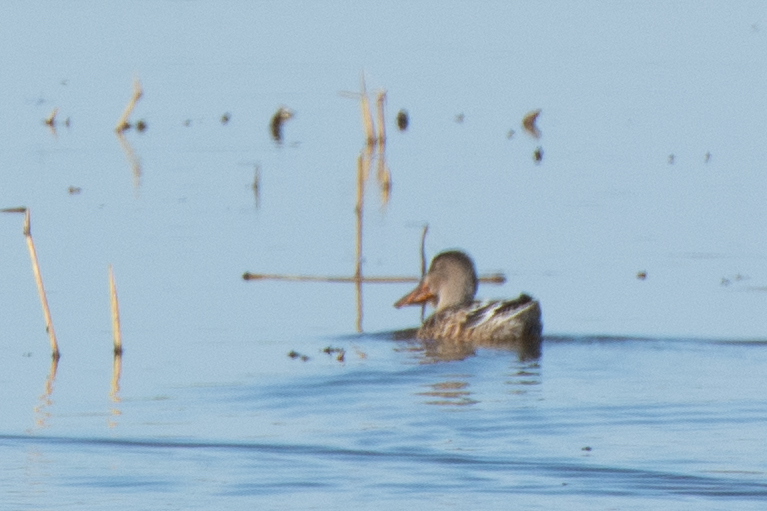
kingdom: Animalia
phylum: Chordata
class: Aves
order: Anseriformes
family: Anatidae
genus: Spatula
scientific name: Spatula clypeata
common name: Northern shoveler
